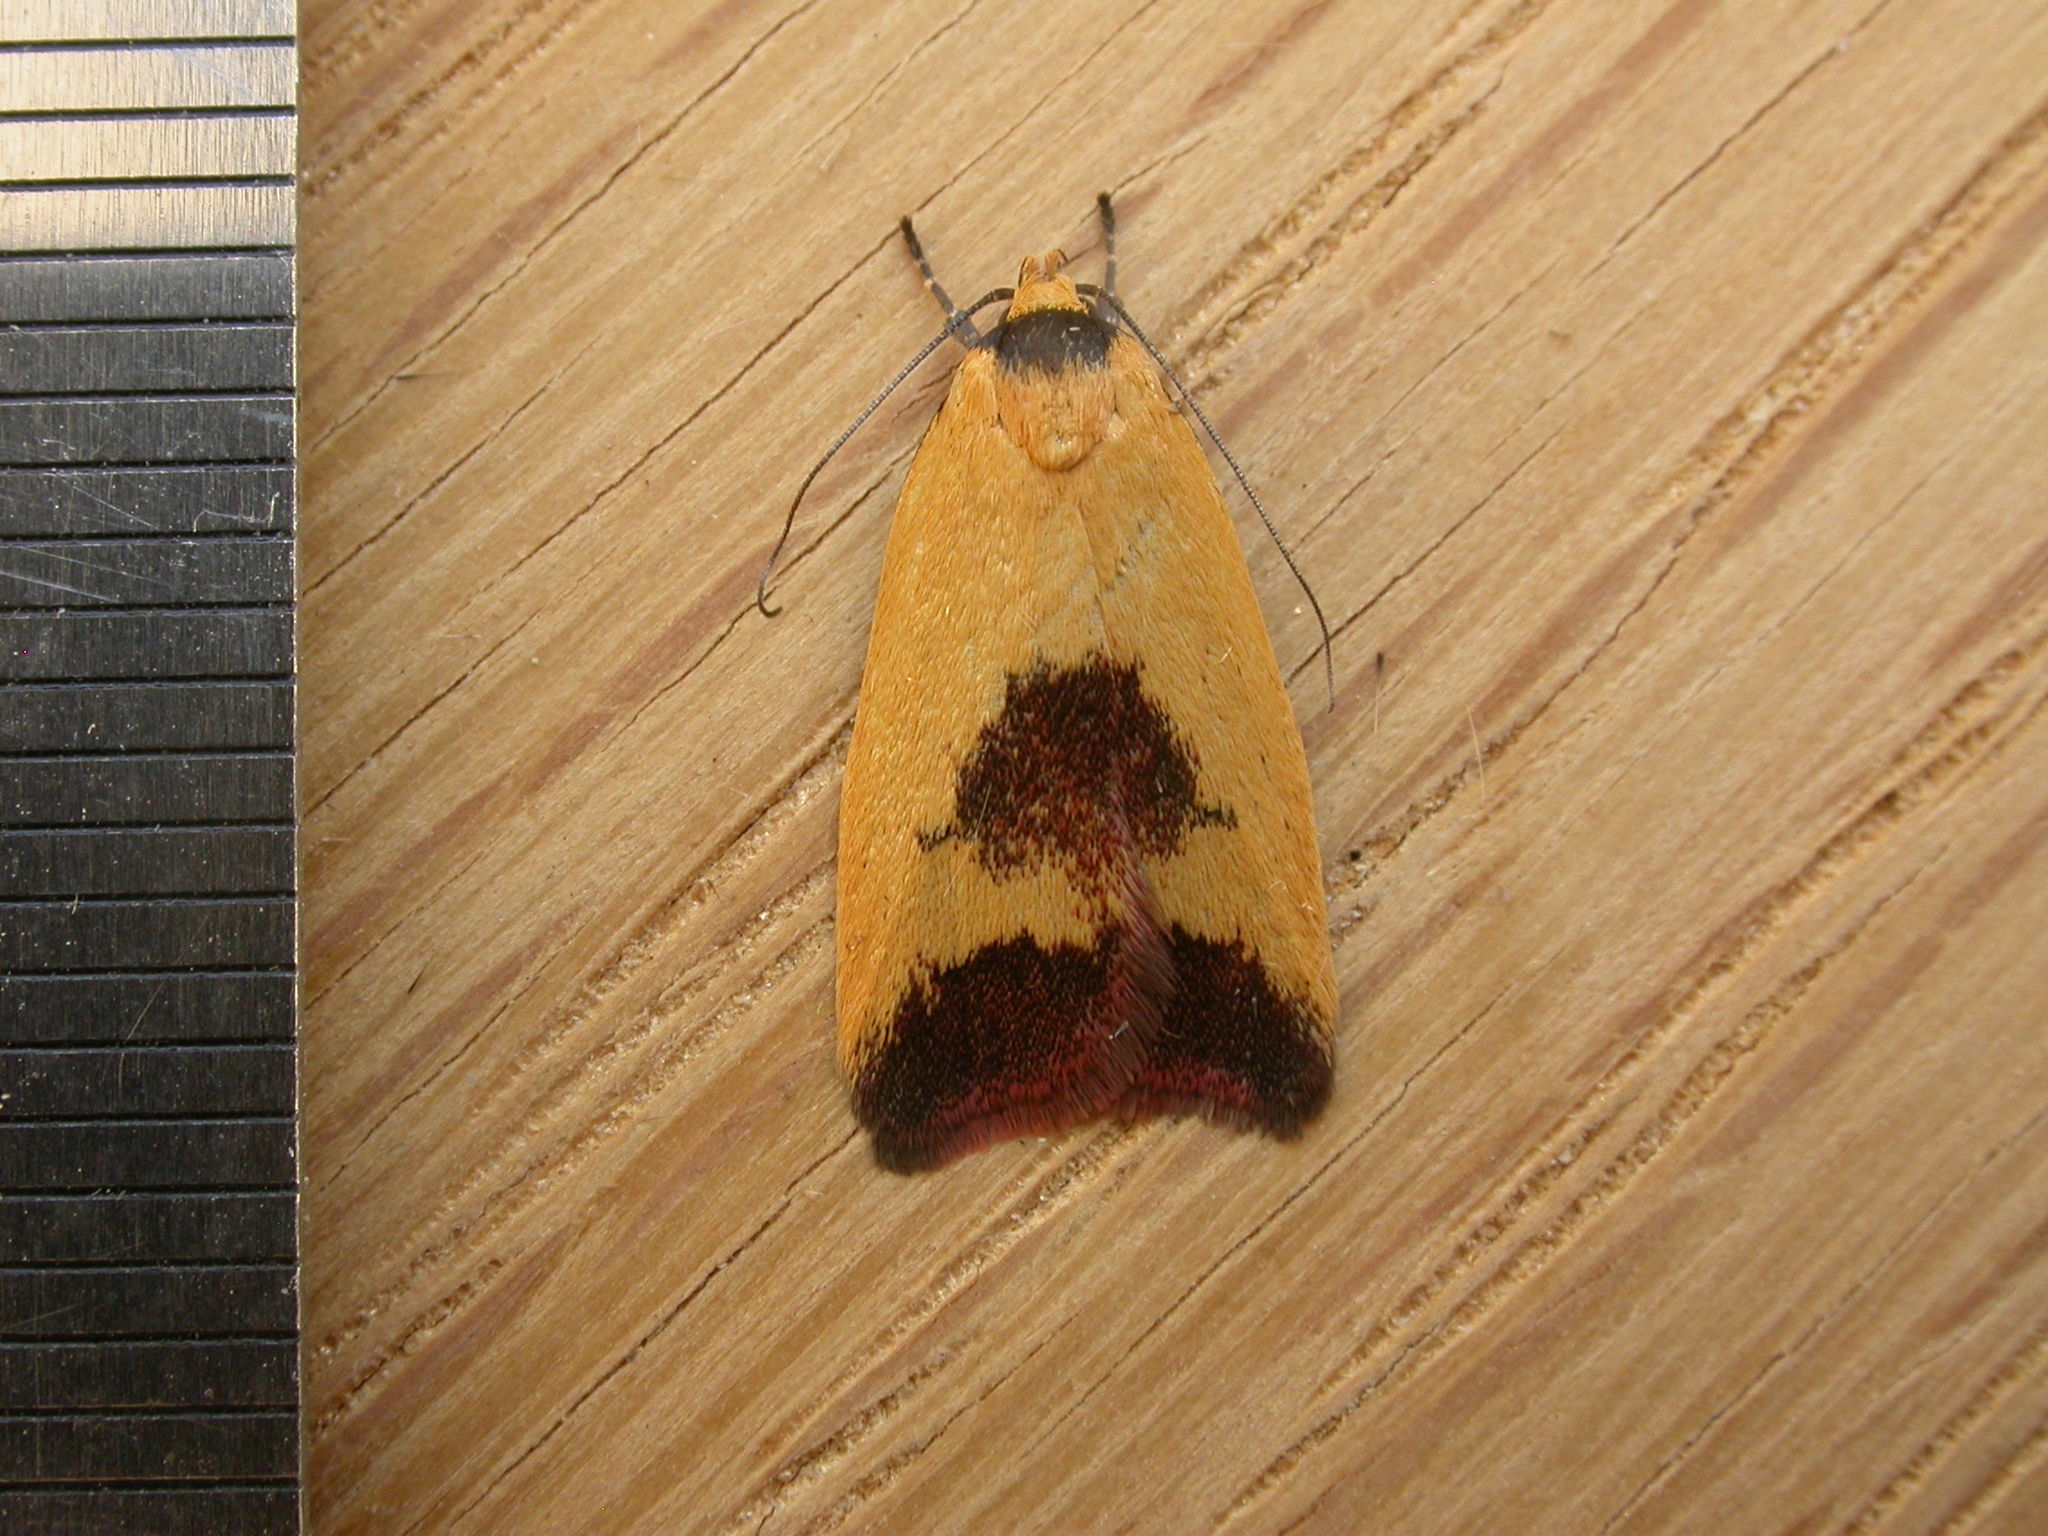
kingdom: Animalia
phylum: Arthropoda
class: Insecta
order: Lepidoptera
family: Oecophoridae
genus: Ageletha
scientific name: Ageletha hemiteles
